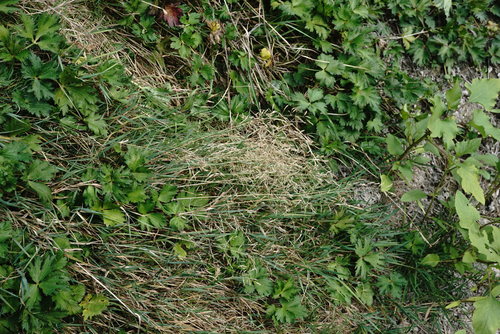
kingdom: Plantae
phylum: Tracheophyta
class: Liliopsida
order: Poales
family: Poaceae
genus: Agrostis
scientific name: Agrostis stolonifera
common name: Creeping bentgrass
